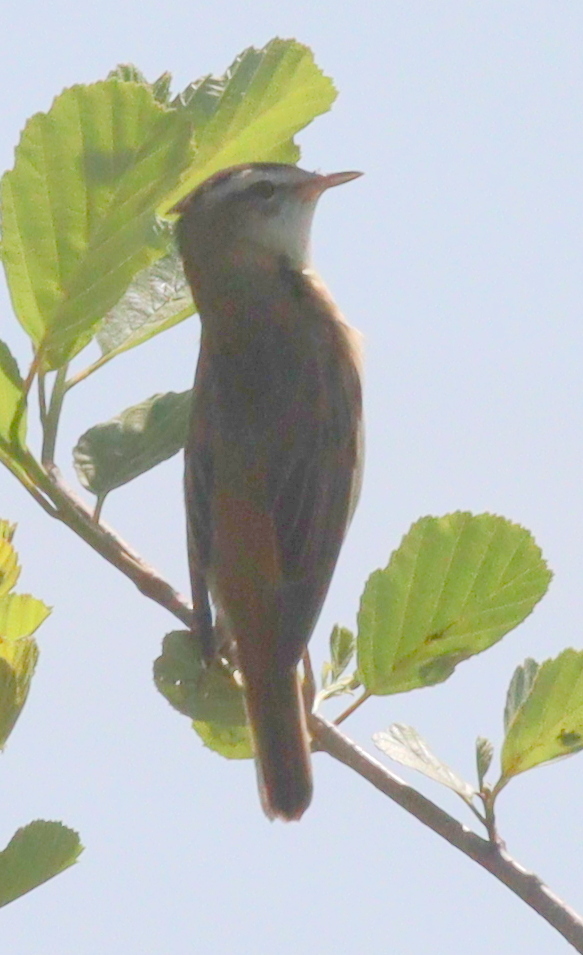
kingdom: Animalia
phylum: Chordata
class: Aves
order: Passeriformes
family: Acrocephalidae
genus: Acrocephalus
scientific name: Acrocephalus schoenobaenus
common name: Sedge warbler
